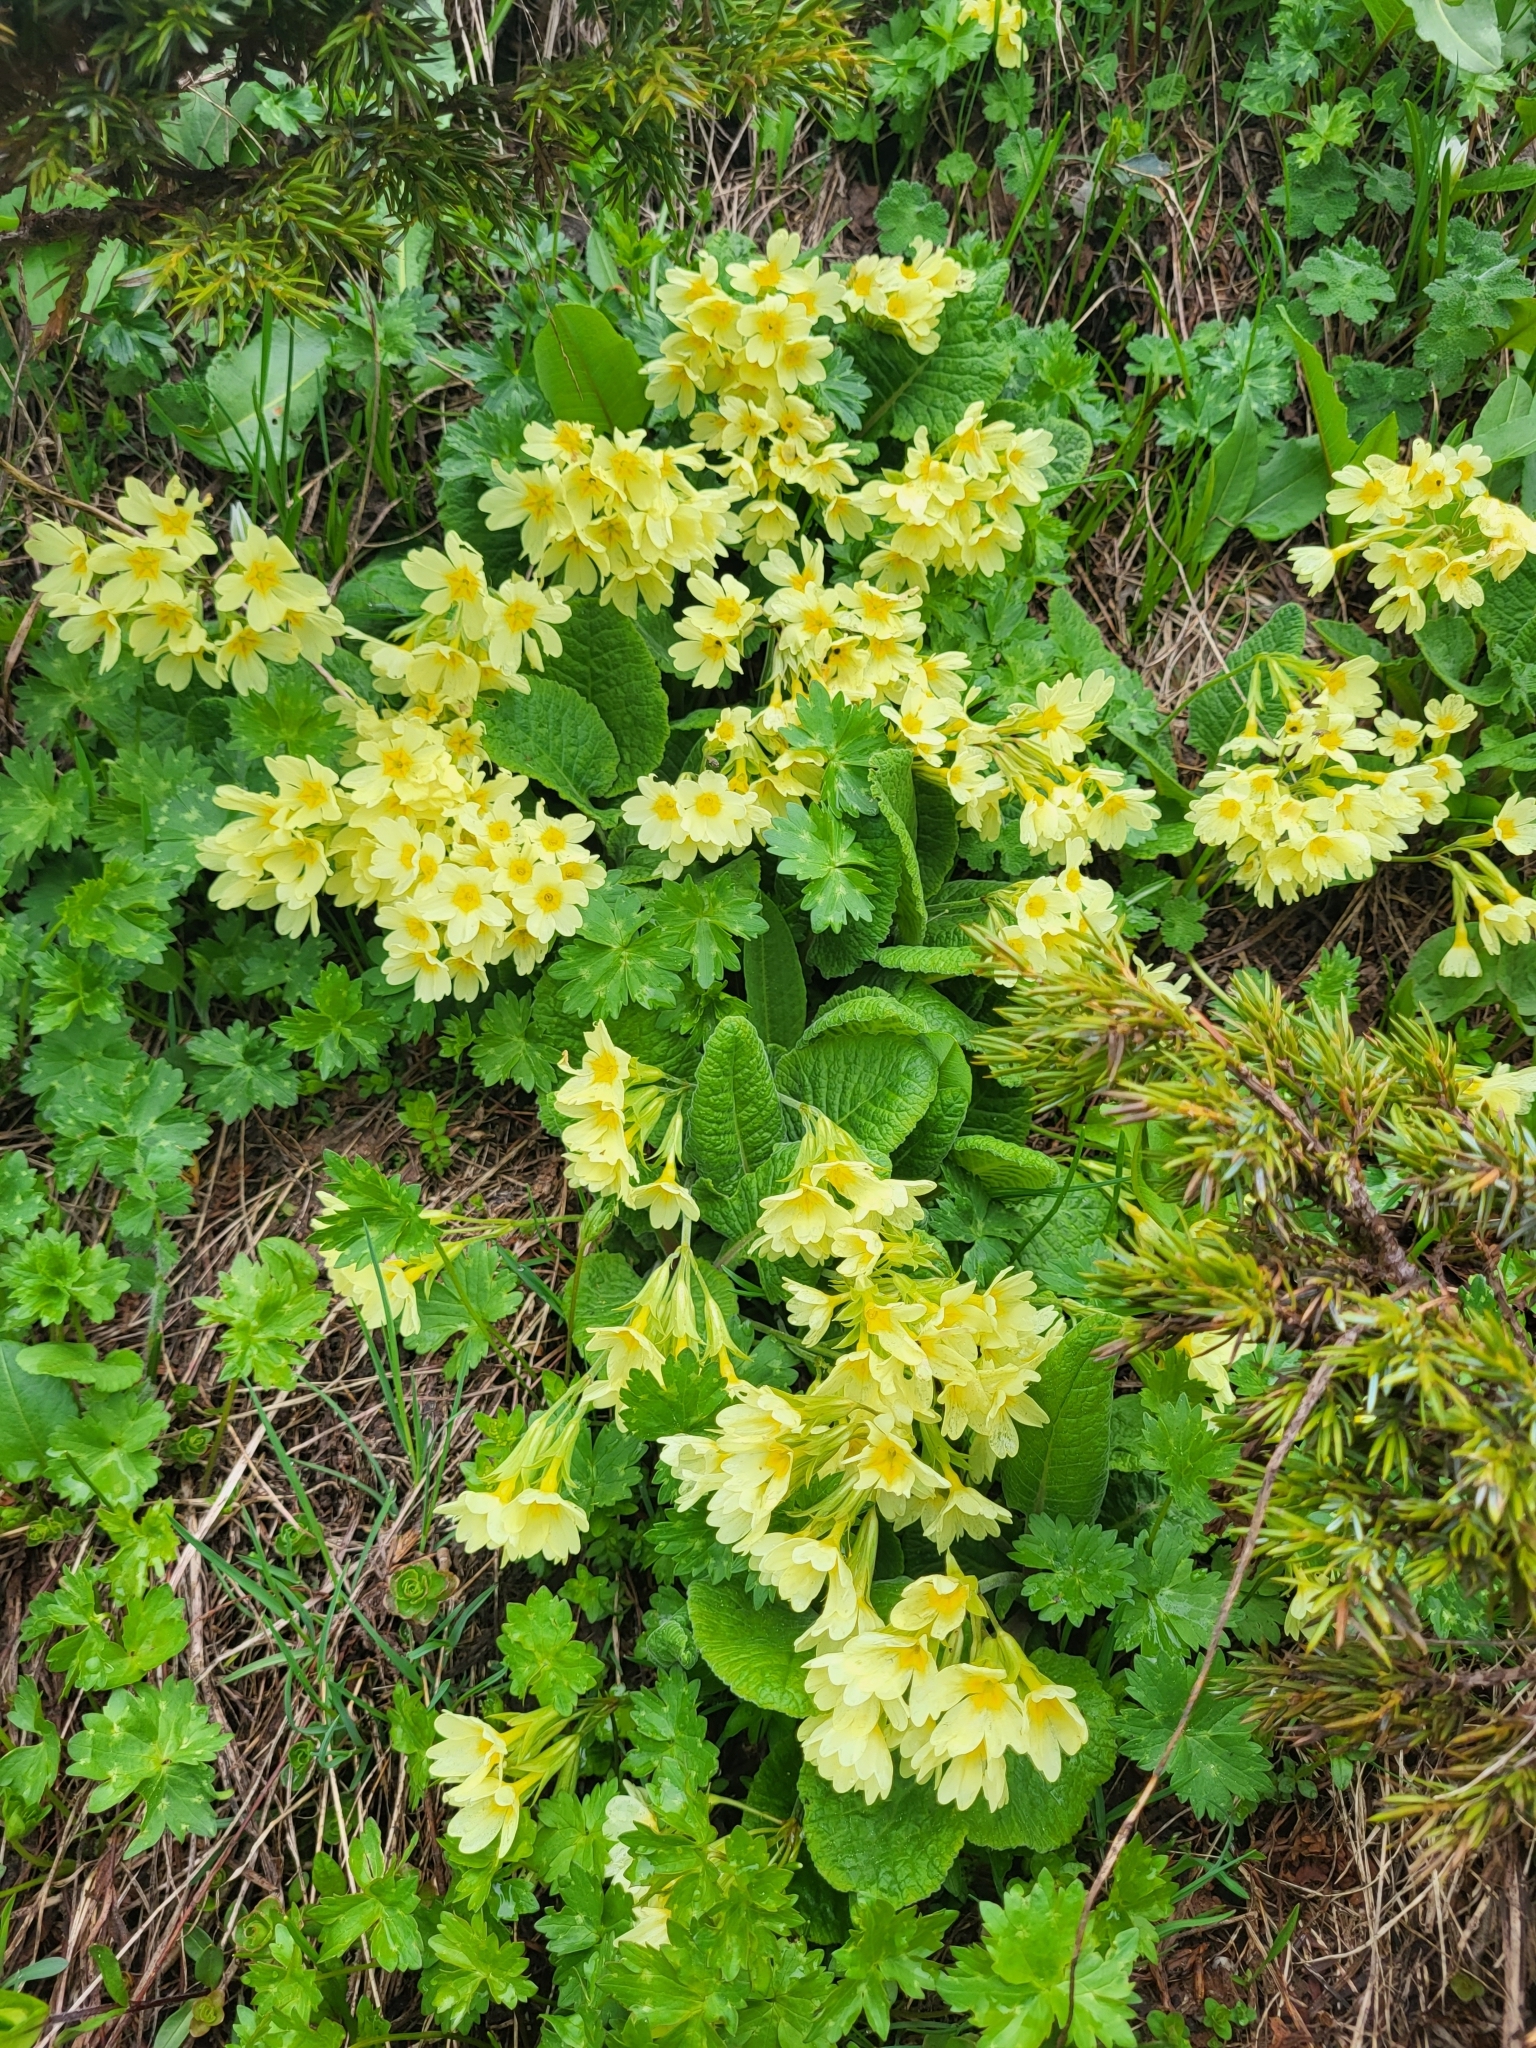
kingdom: Plantae
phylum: Tracheophyta
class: Magnoliopsida
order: Ericales
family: Primulaceae
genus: Primula
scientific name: Primula elatior
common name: Oxlip
